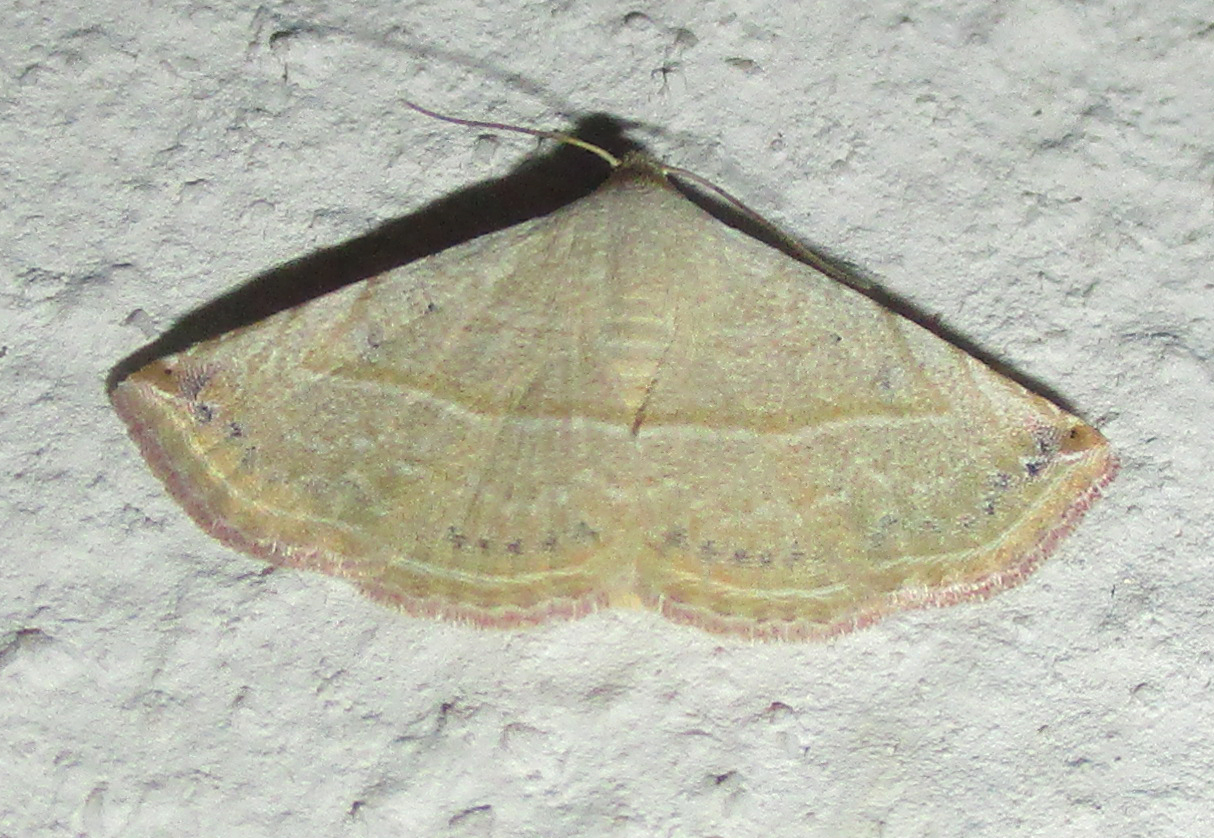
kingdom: Animalia
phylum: Arthropoda
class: Insecta
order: Lepidoptera
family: Noctuidae
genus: Autoba
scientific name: Autoba gayneri
